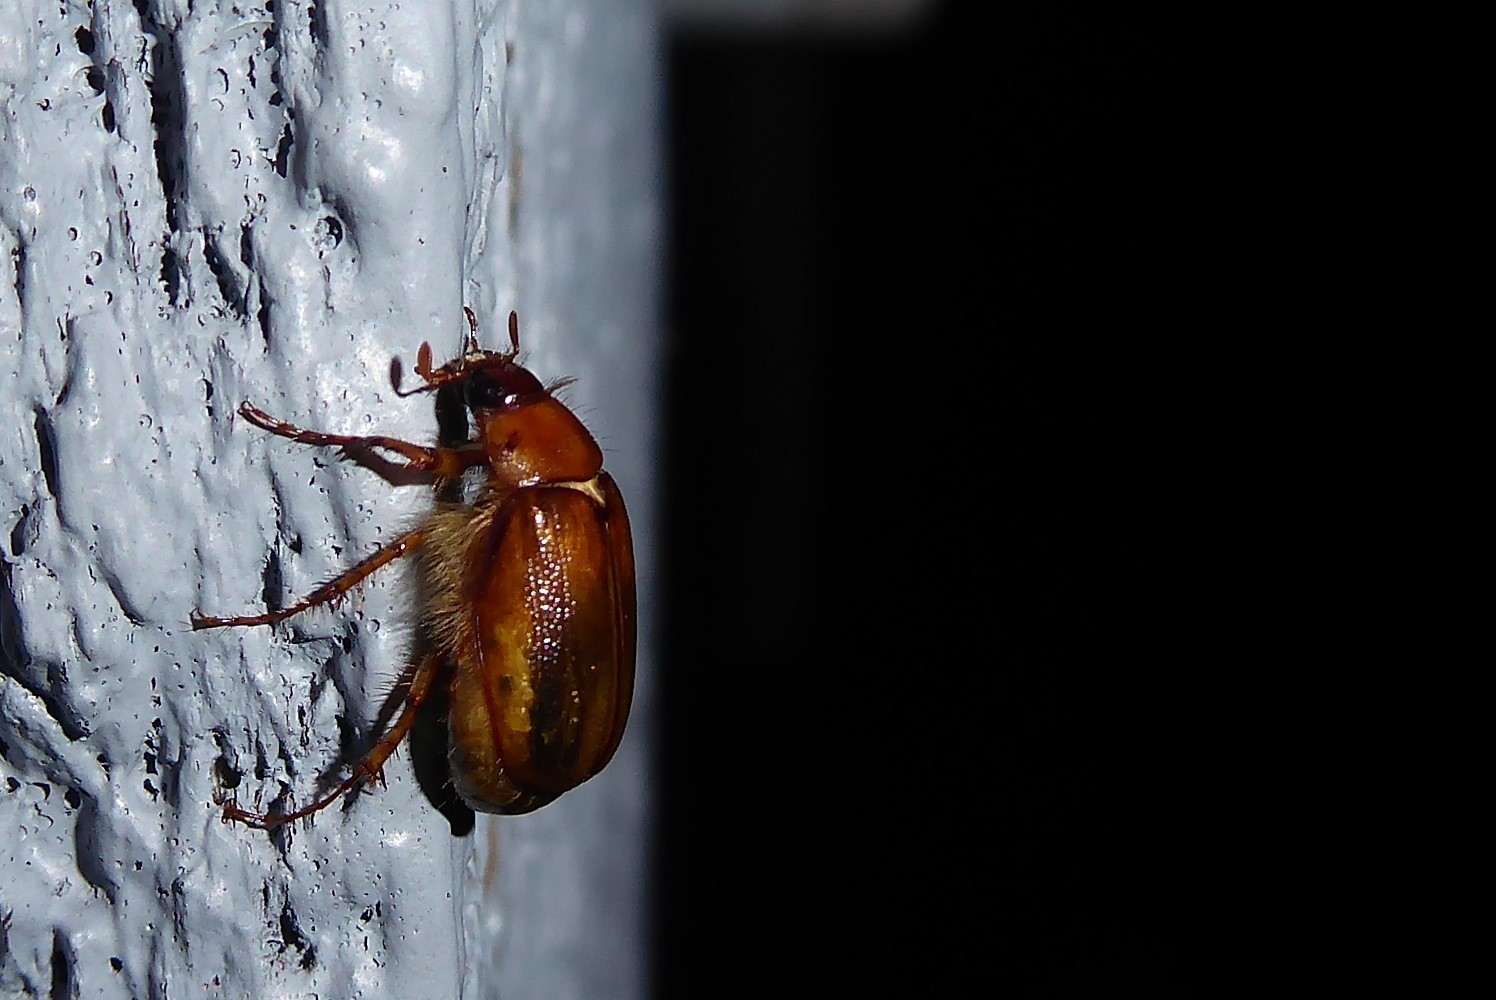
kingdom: Animalia
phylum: Arthropoda
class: Insecta
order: Coleoptera
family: Scarabaeidae
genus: Costelytra
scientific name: Costelytra zealandica
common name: New zealand grass grub
